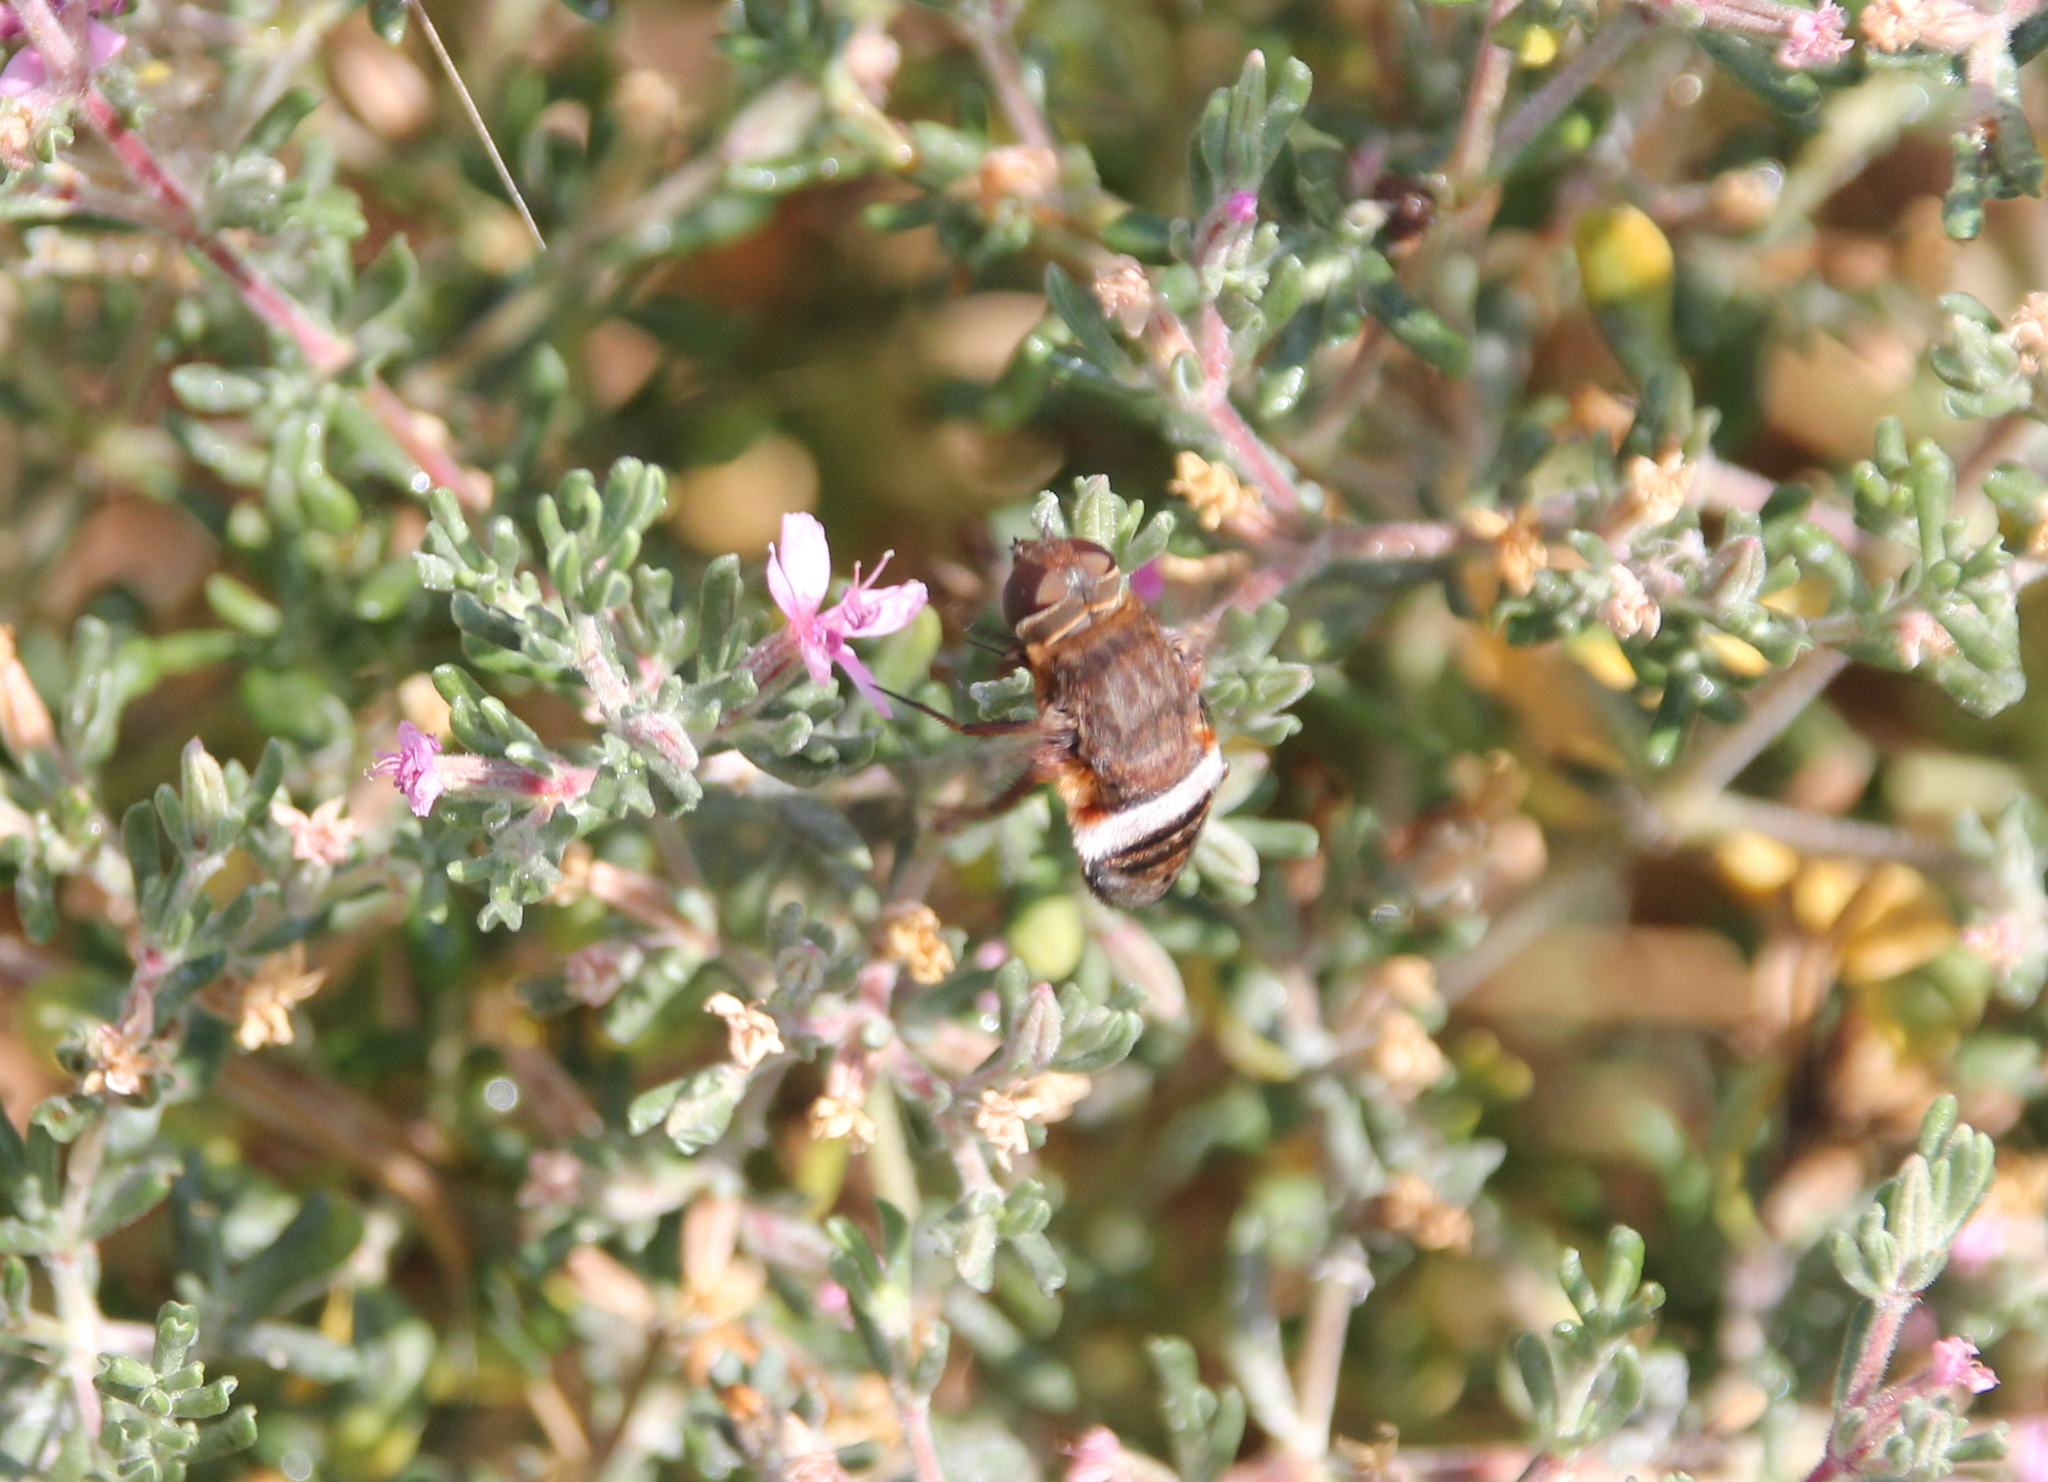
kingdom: Plantae
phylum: Tracheophyta
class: Magnoliopsida
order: Caryophyllales
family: Frankeniaceae
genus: Frankenia
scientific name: Frankenia salina
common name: Alkali seaheath
